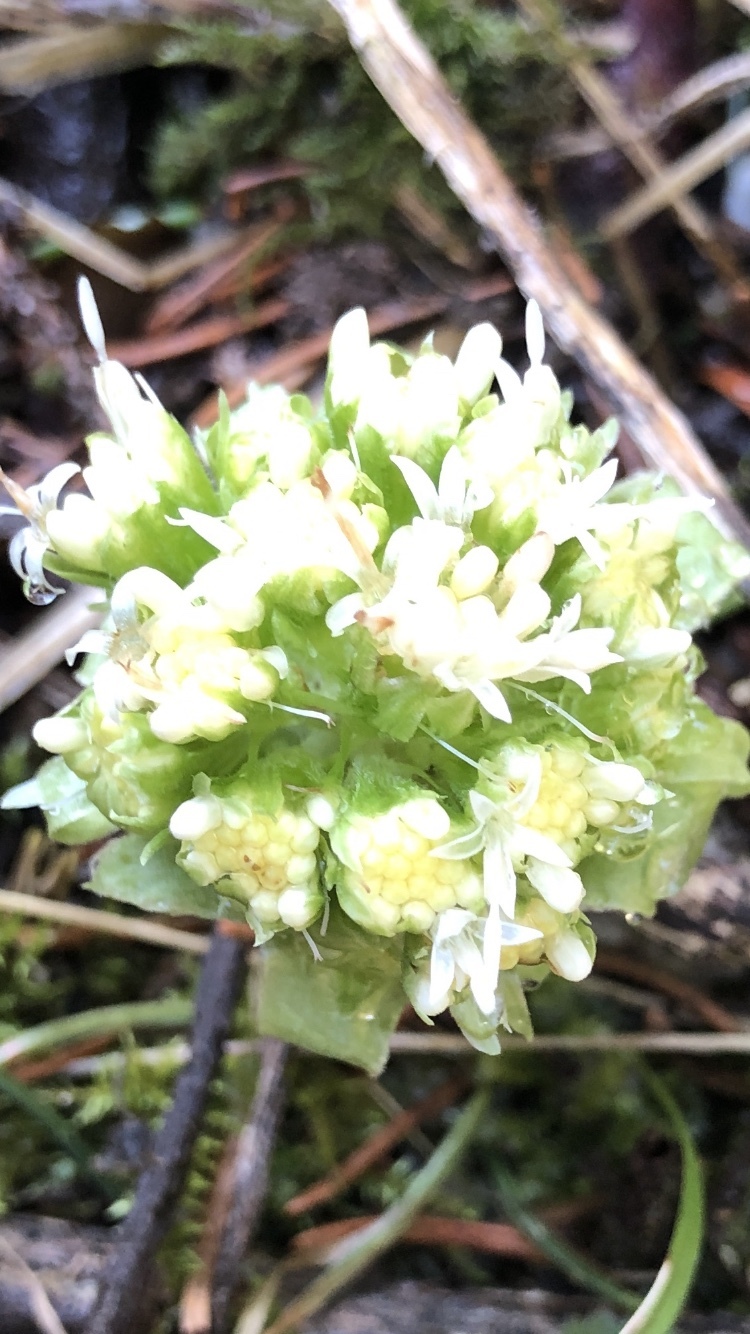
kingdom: Plantae
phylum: Tracheophyta
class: Magnoliopsida
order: Asterales
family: Asteraceae
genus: Petasites
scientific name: Petasites albus
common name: White butterbur
